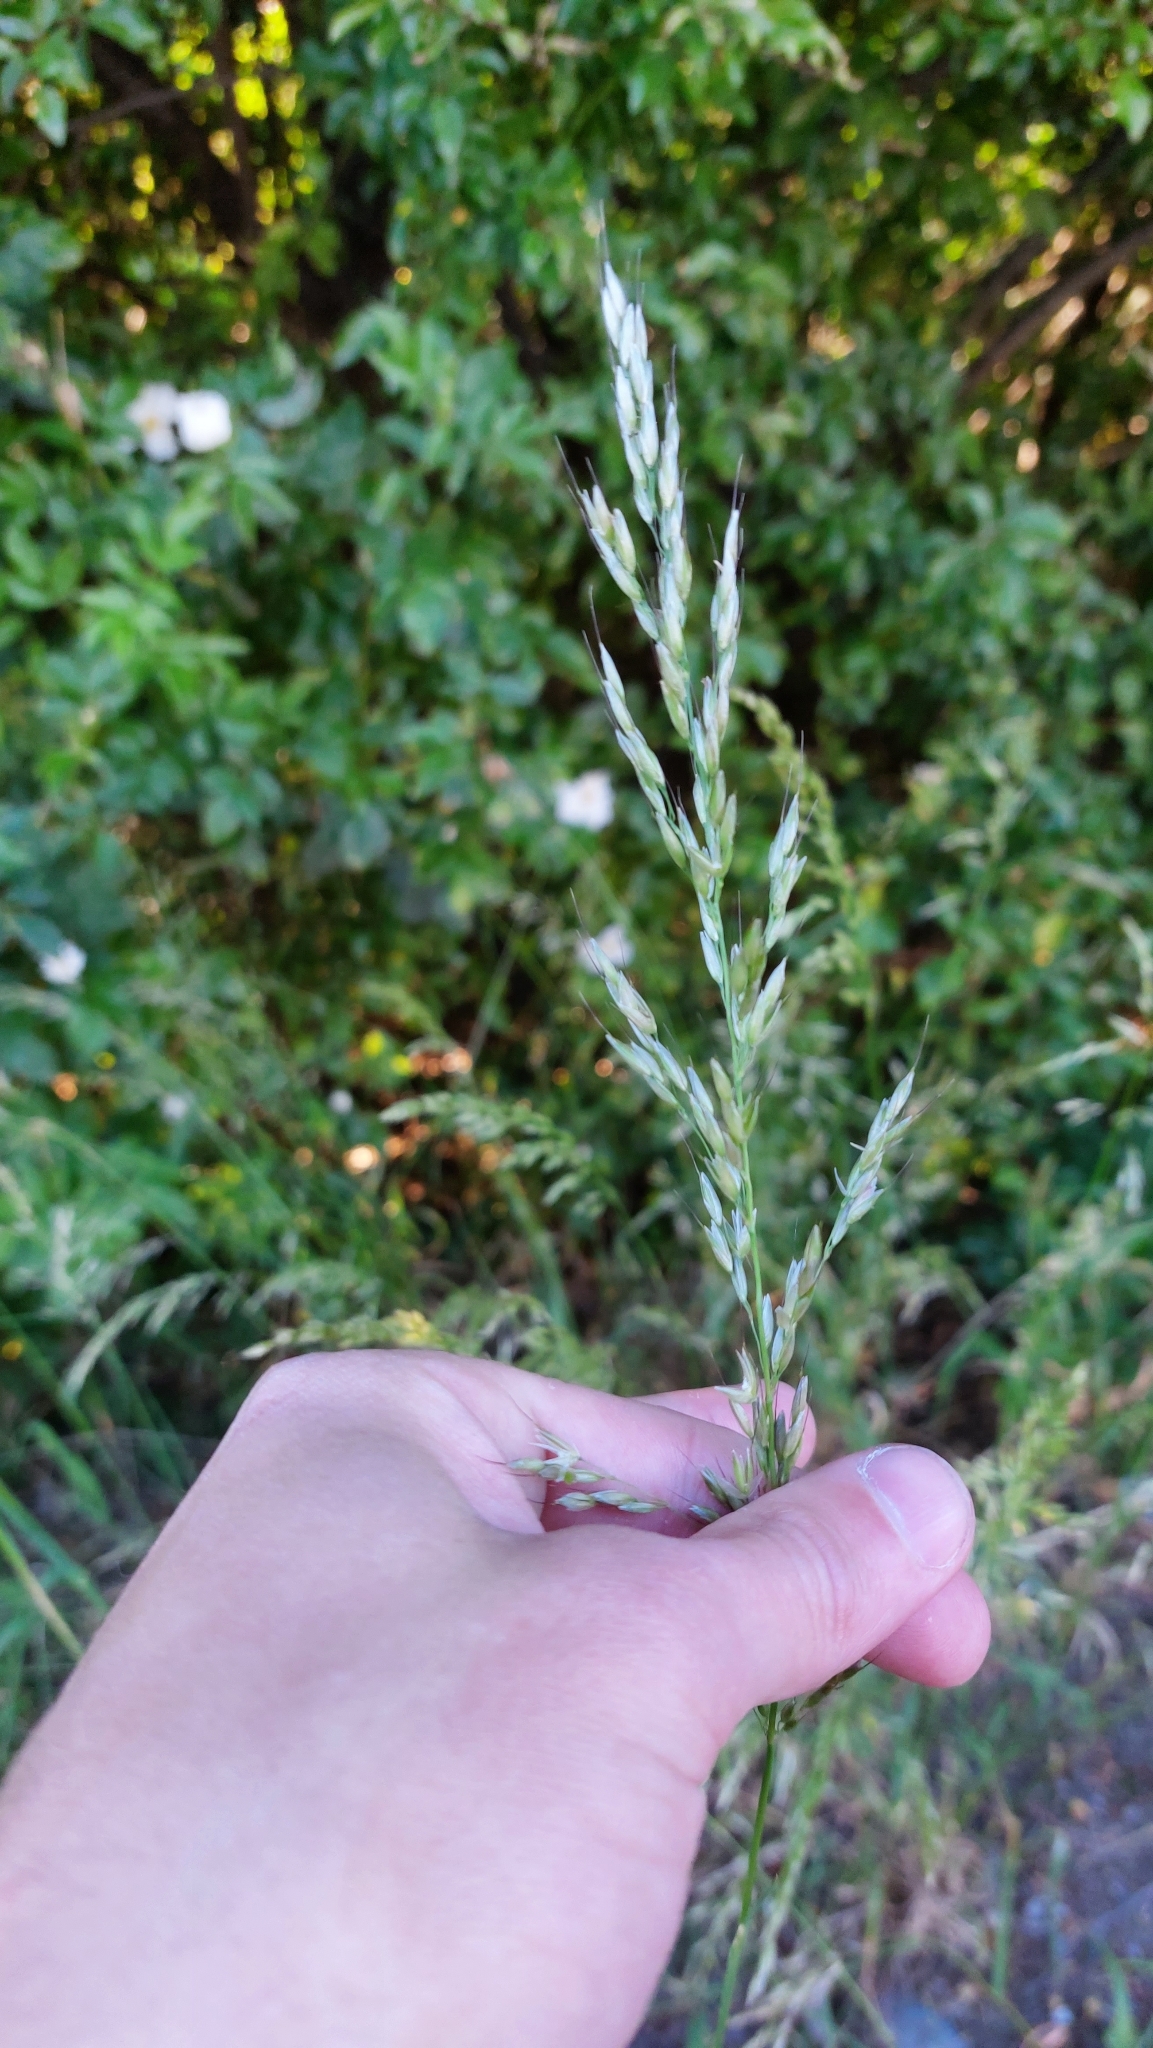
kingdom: Plantae
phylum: Tracheophyta
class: Liliopsida
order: Poales
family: Poaceae
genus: Arrhenatherum
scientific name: Arrhenatherum elatius
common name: Tall oatgrass
